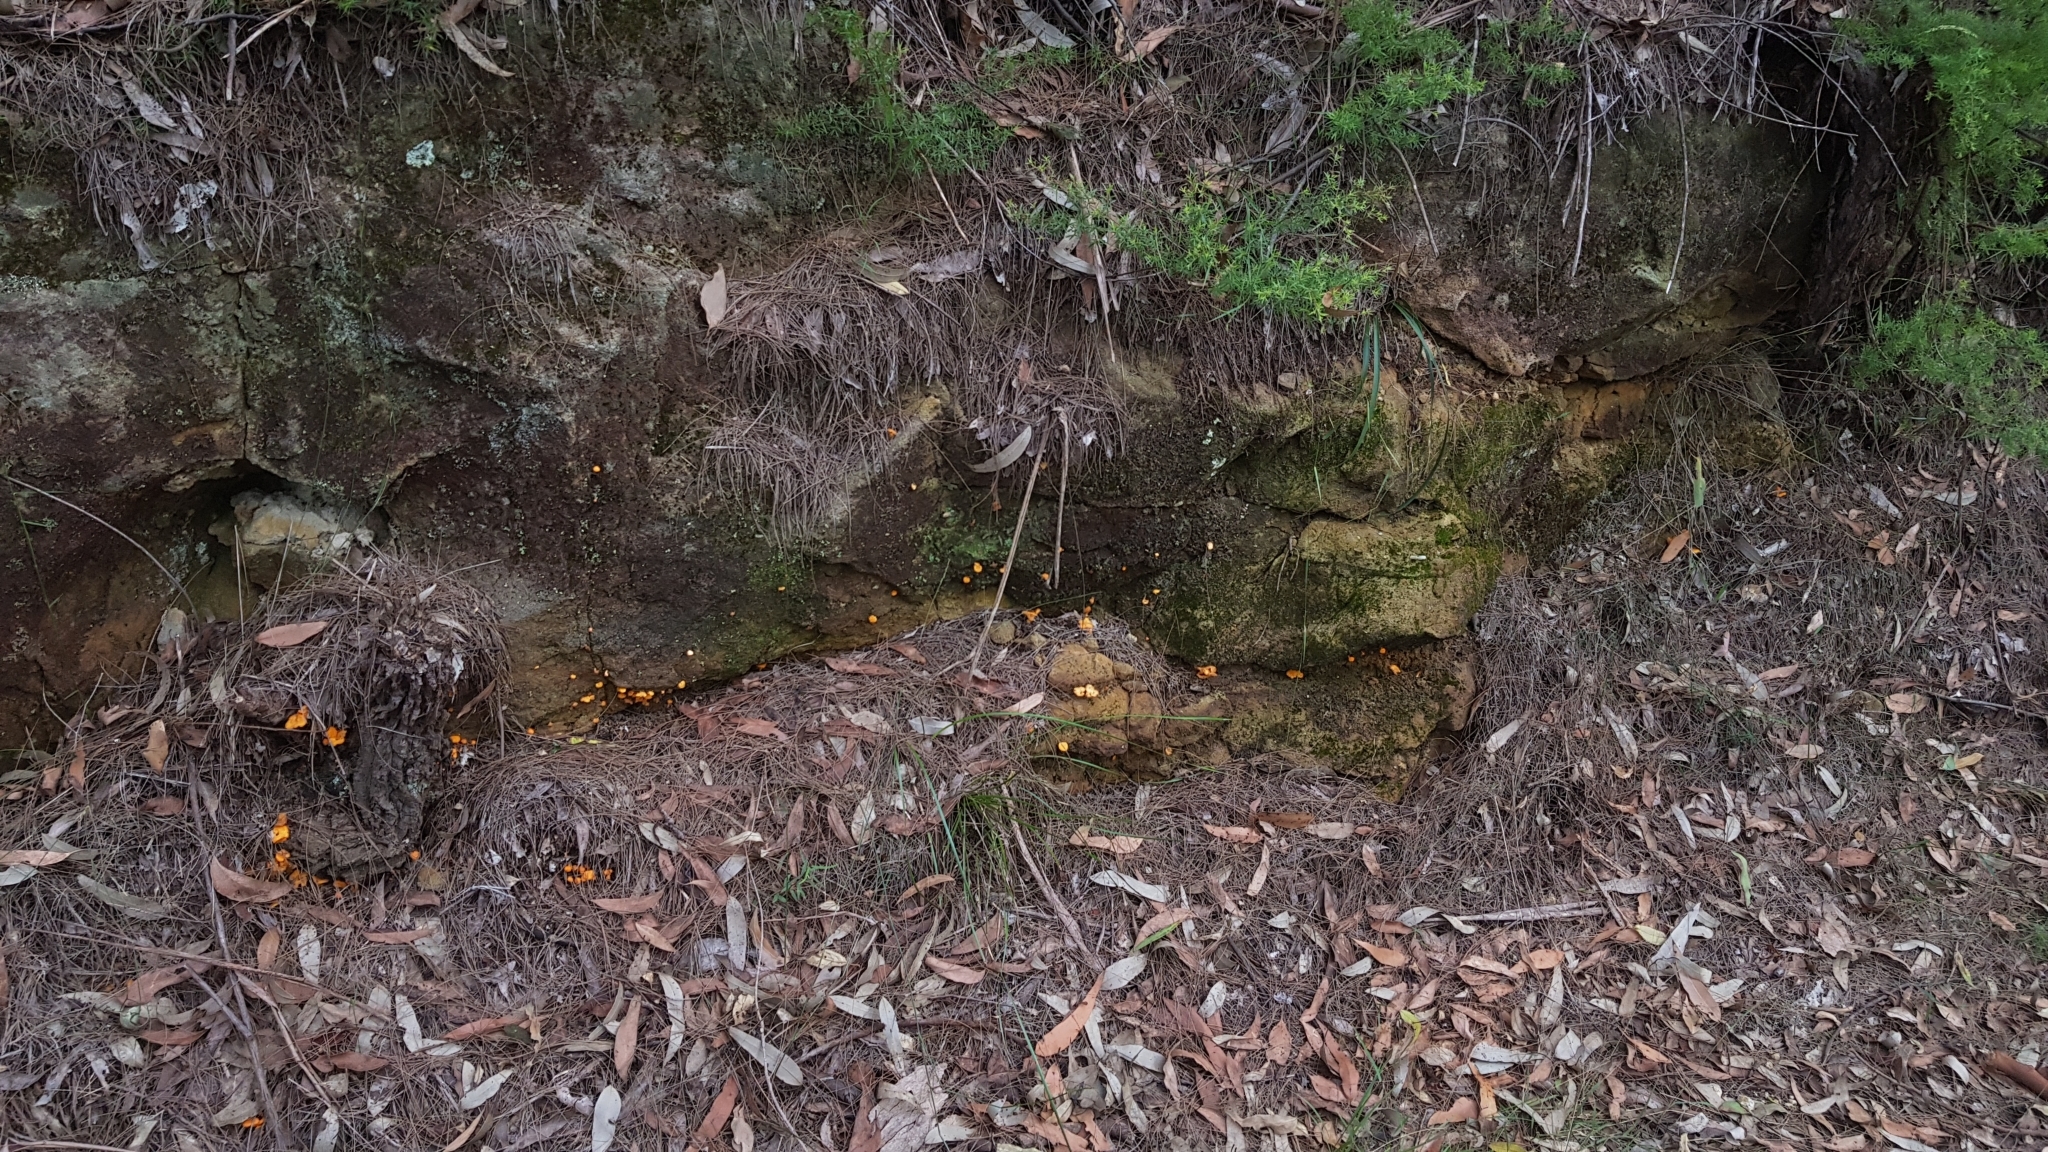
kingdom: Fungi
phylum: Basidiomycota
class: Agaricomycetes
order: Cantharellales
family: Hydnaceae
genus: Cantharellus
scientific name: Cantharellus
